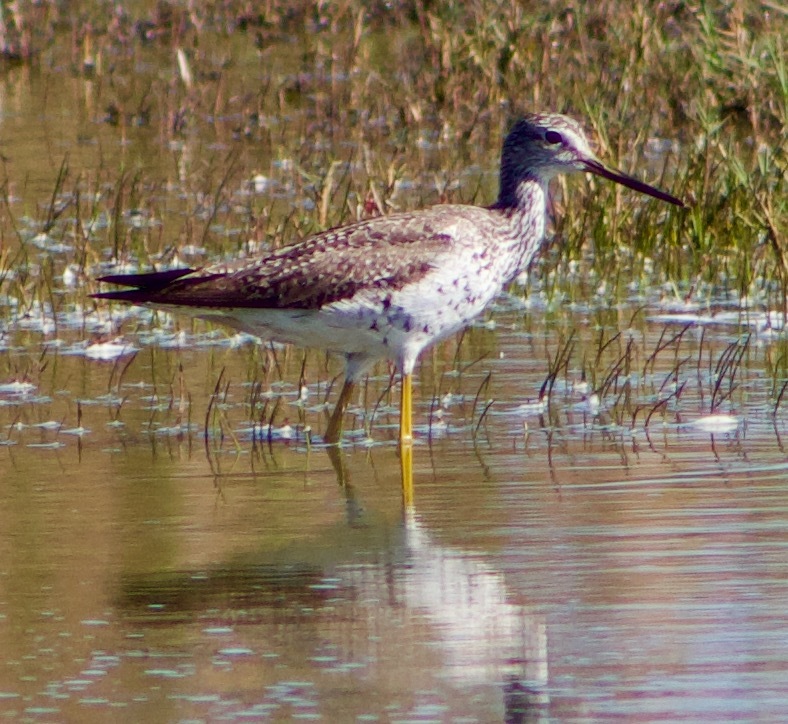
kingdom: Animalia
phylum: Chordata
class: Aves
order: Charadriiformes
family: Scolopacidae
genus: Tringa
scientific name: Tringa melanoleuca
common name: Greater yellowlegs
